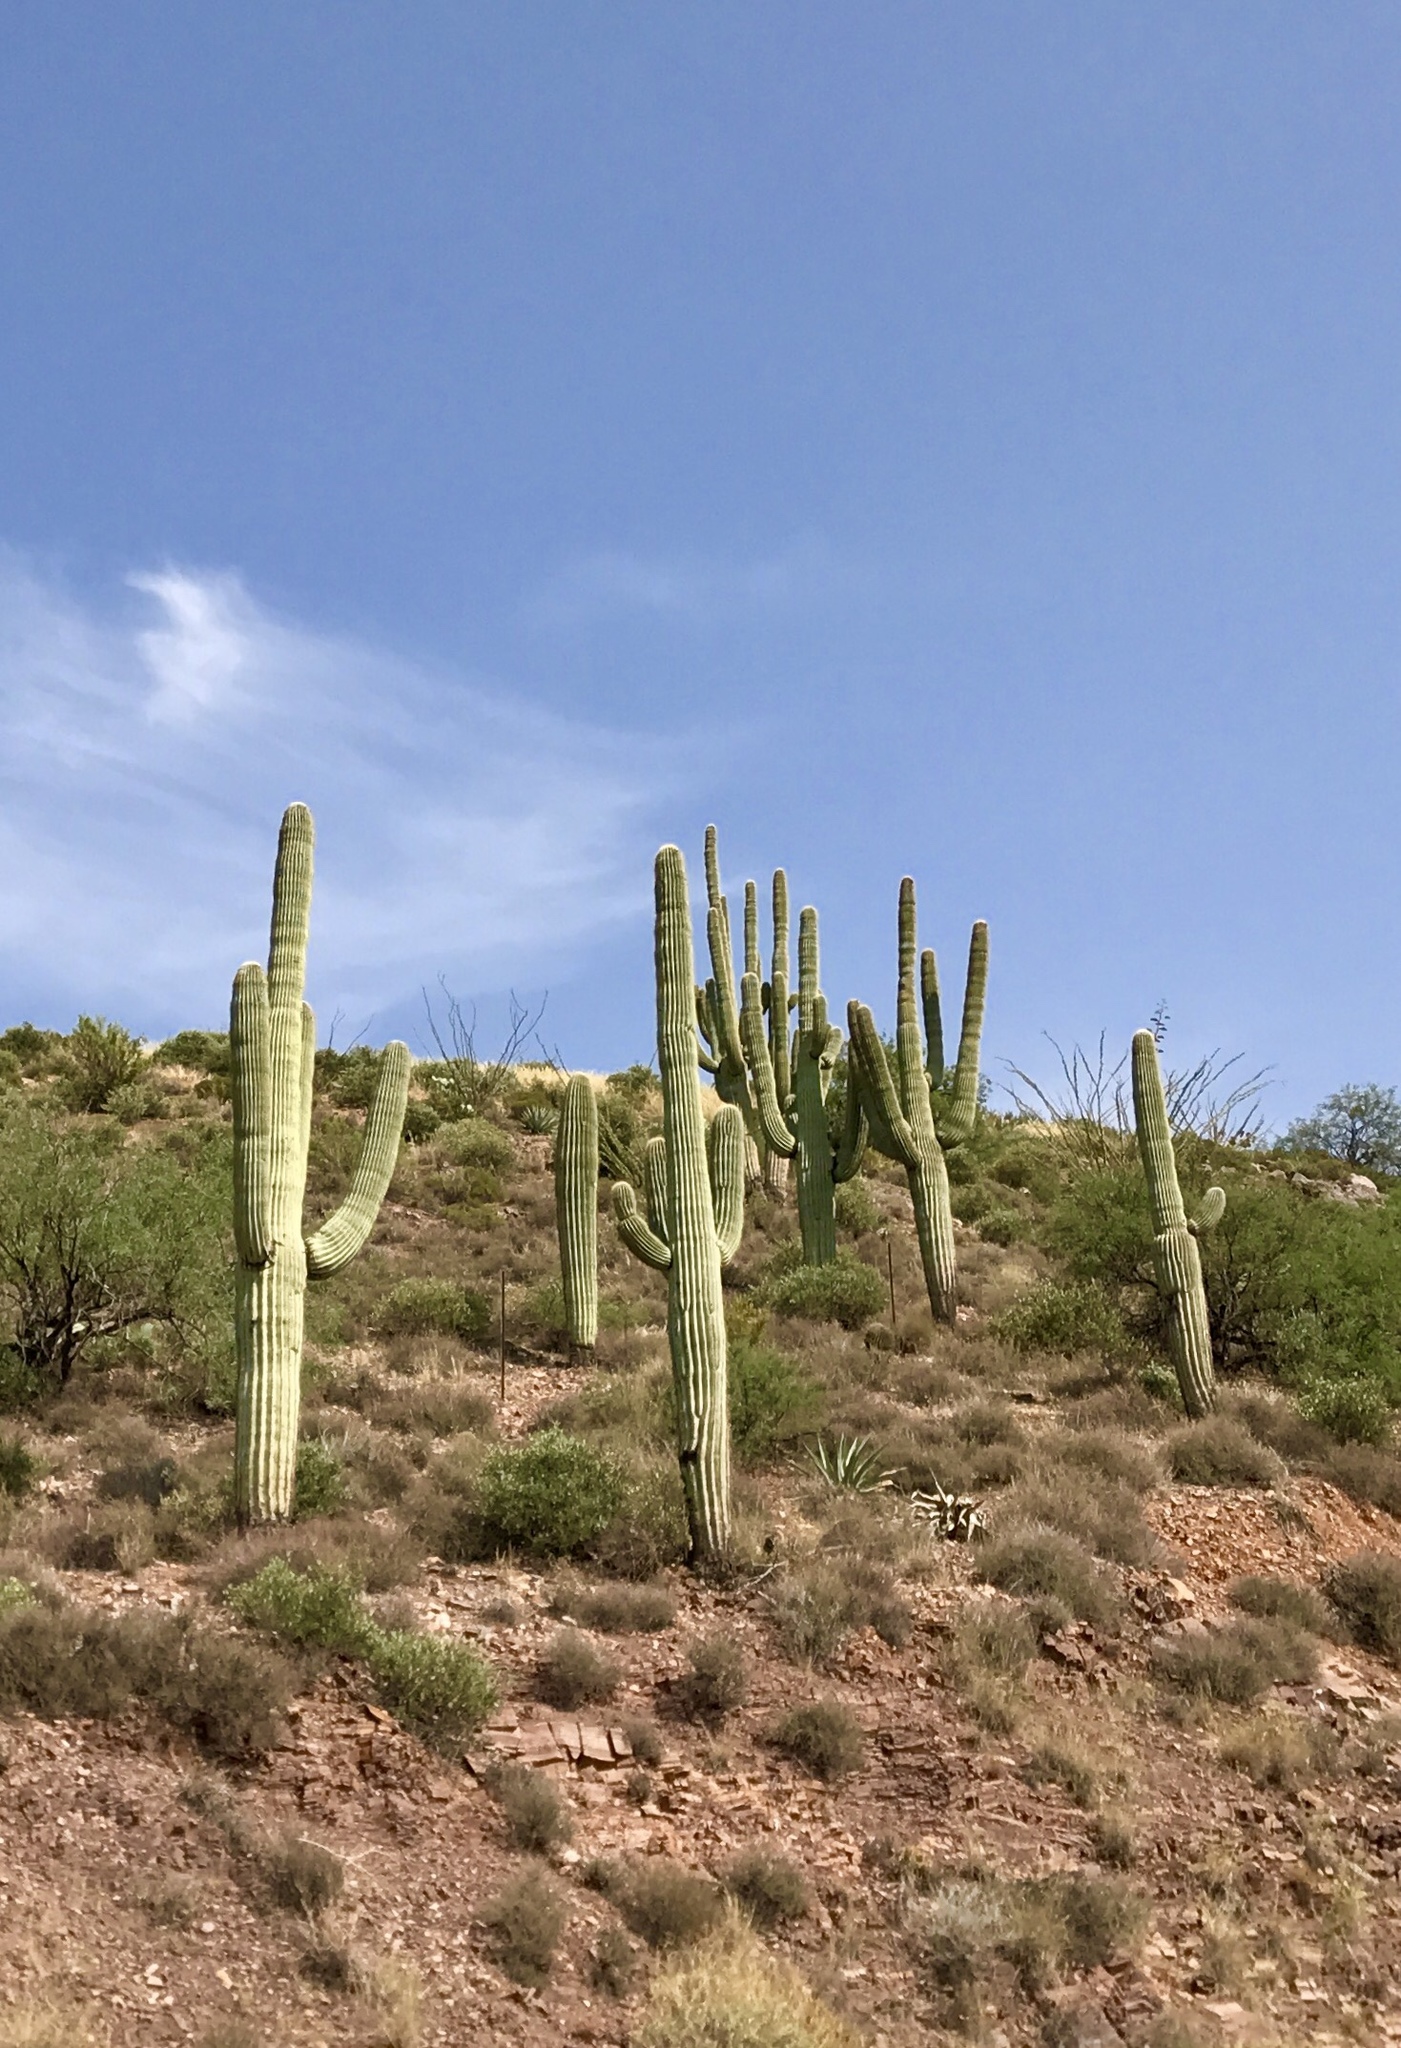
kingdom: Plantae
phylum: Tracheophyta
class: Magnoliopsida
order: Caryophyllales
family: Cactaceae
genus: Carnegiea
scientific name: Carnegiea gigantea
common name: Saguaro
